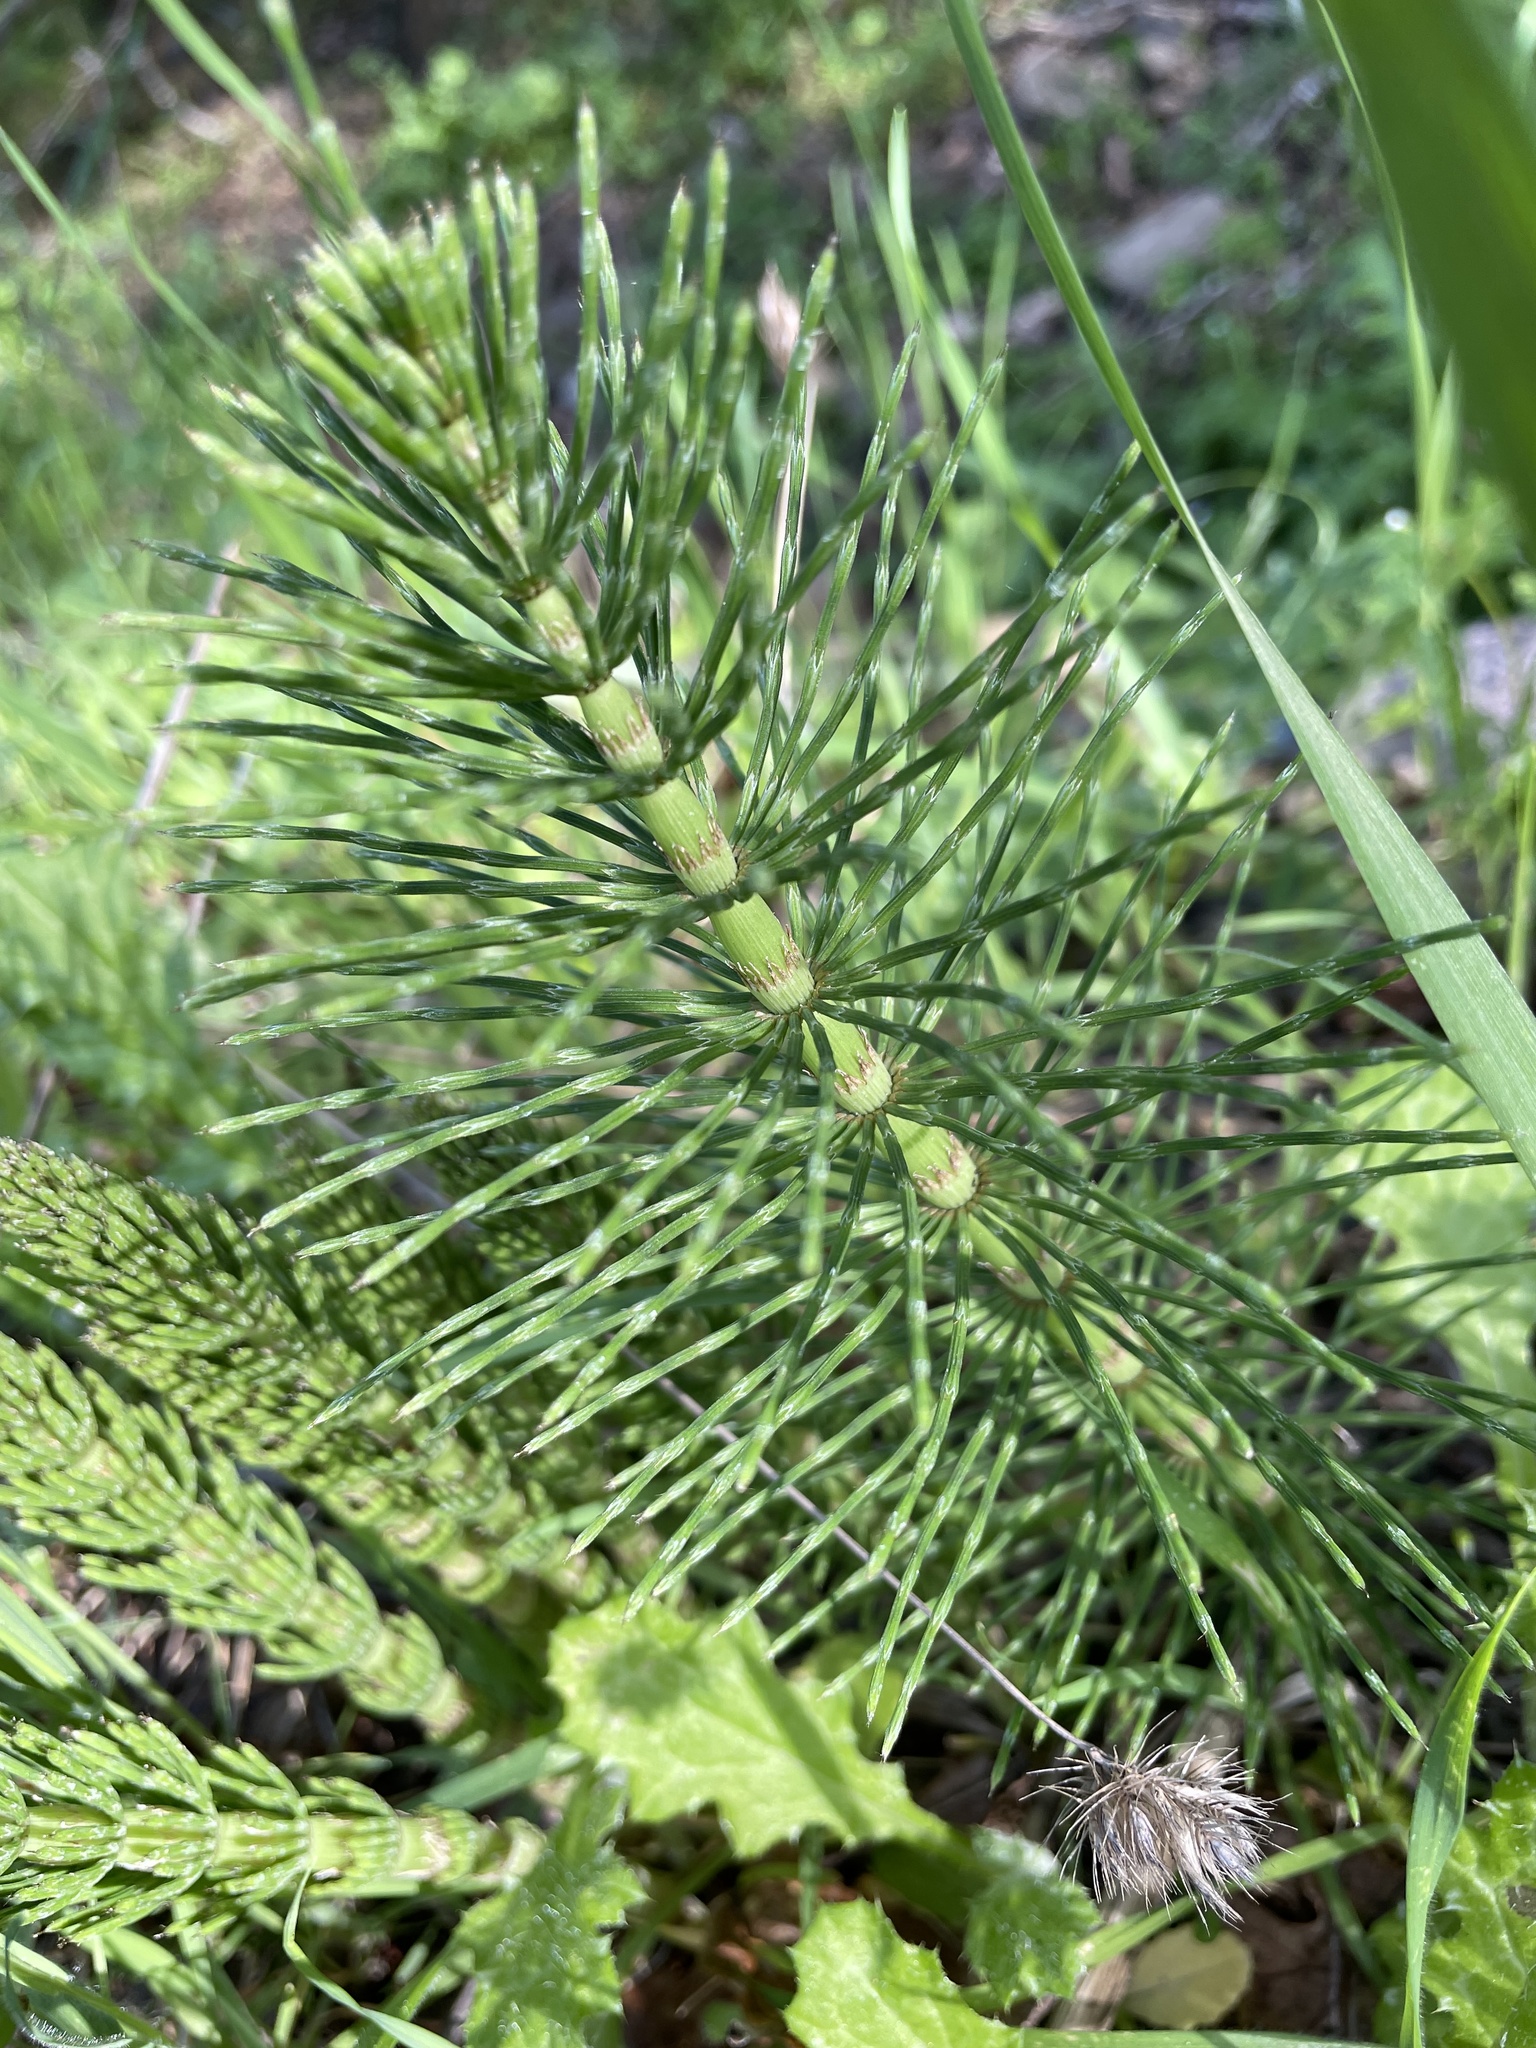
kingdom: Plantae
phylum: Tracheophyta
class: Polypodiopsida
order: Equisetales
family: Equisetaceae
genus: Equisetum
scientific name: Equisetum telmateia
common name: Great horsetail
